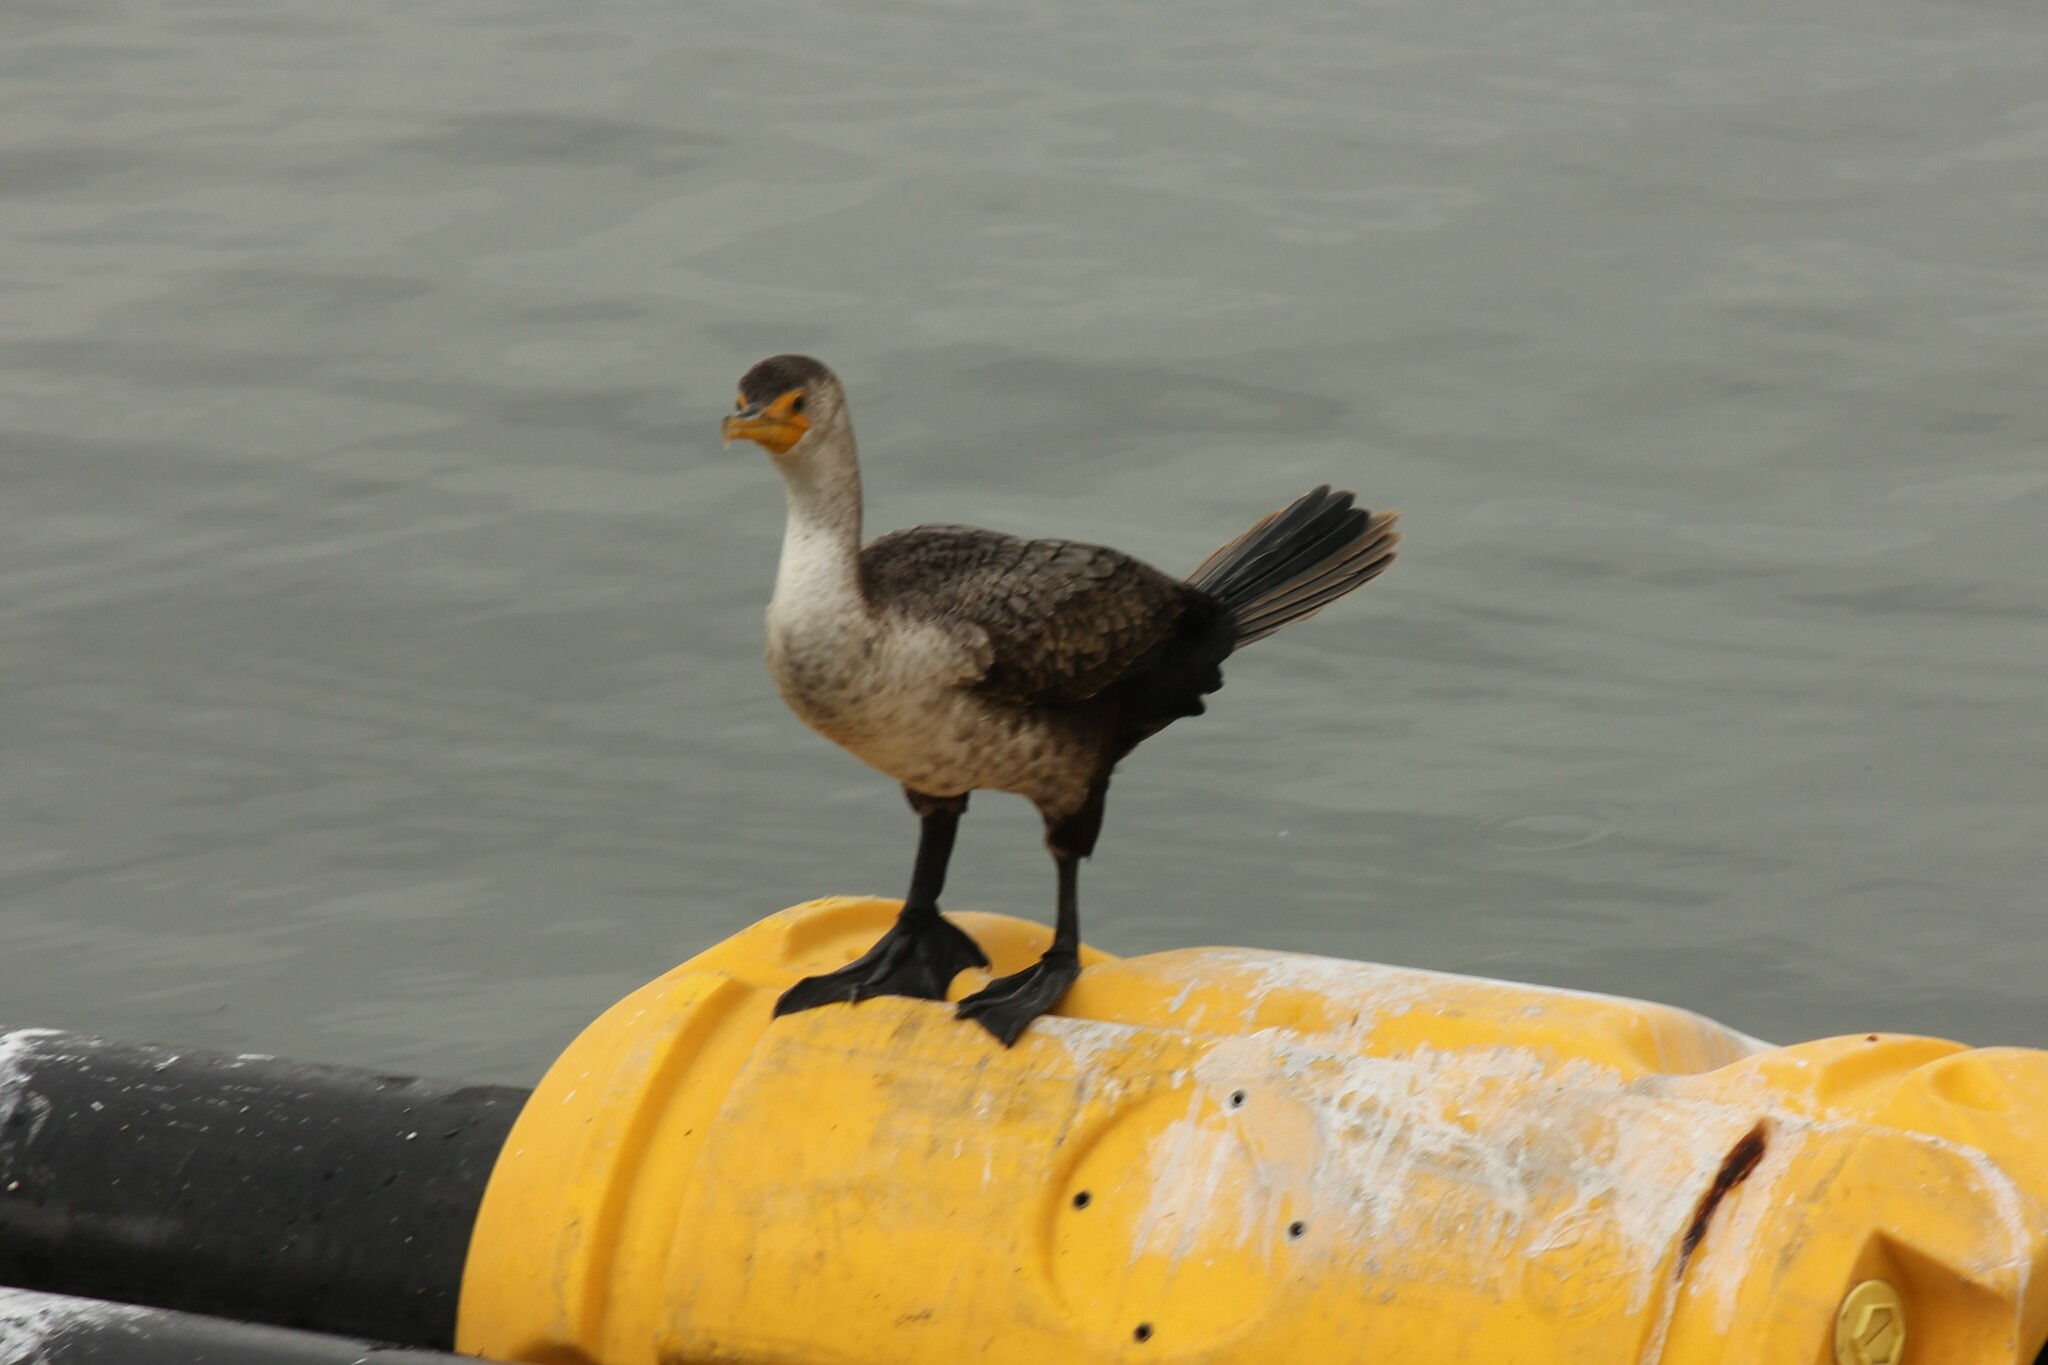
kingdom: Animalia
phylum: Chordata
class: Aves
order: Suliformes
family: Phalacrocoracidae
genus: Phalacrocorax
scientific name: Phalacrocorax auritus
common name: Double-crested cormorant
